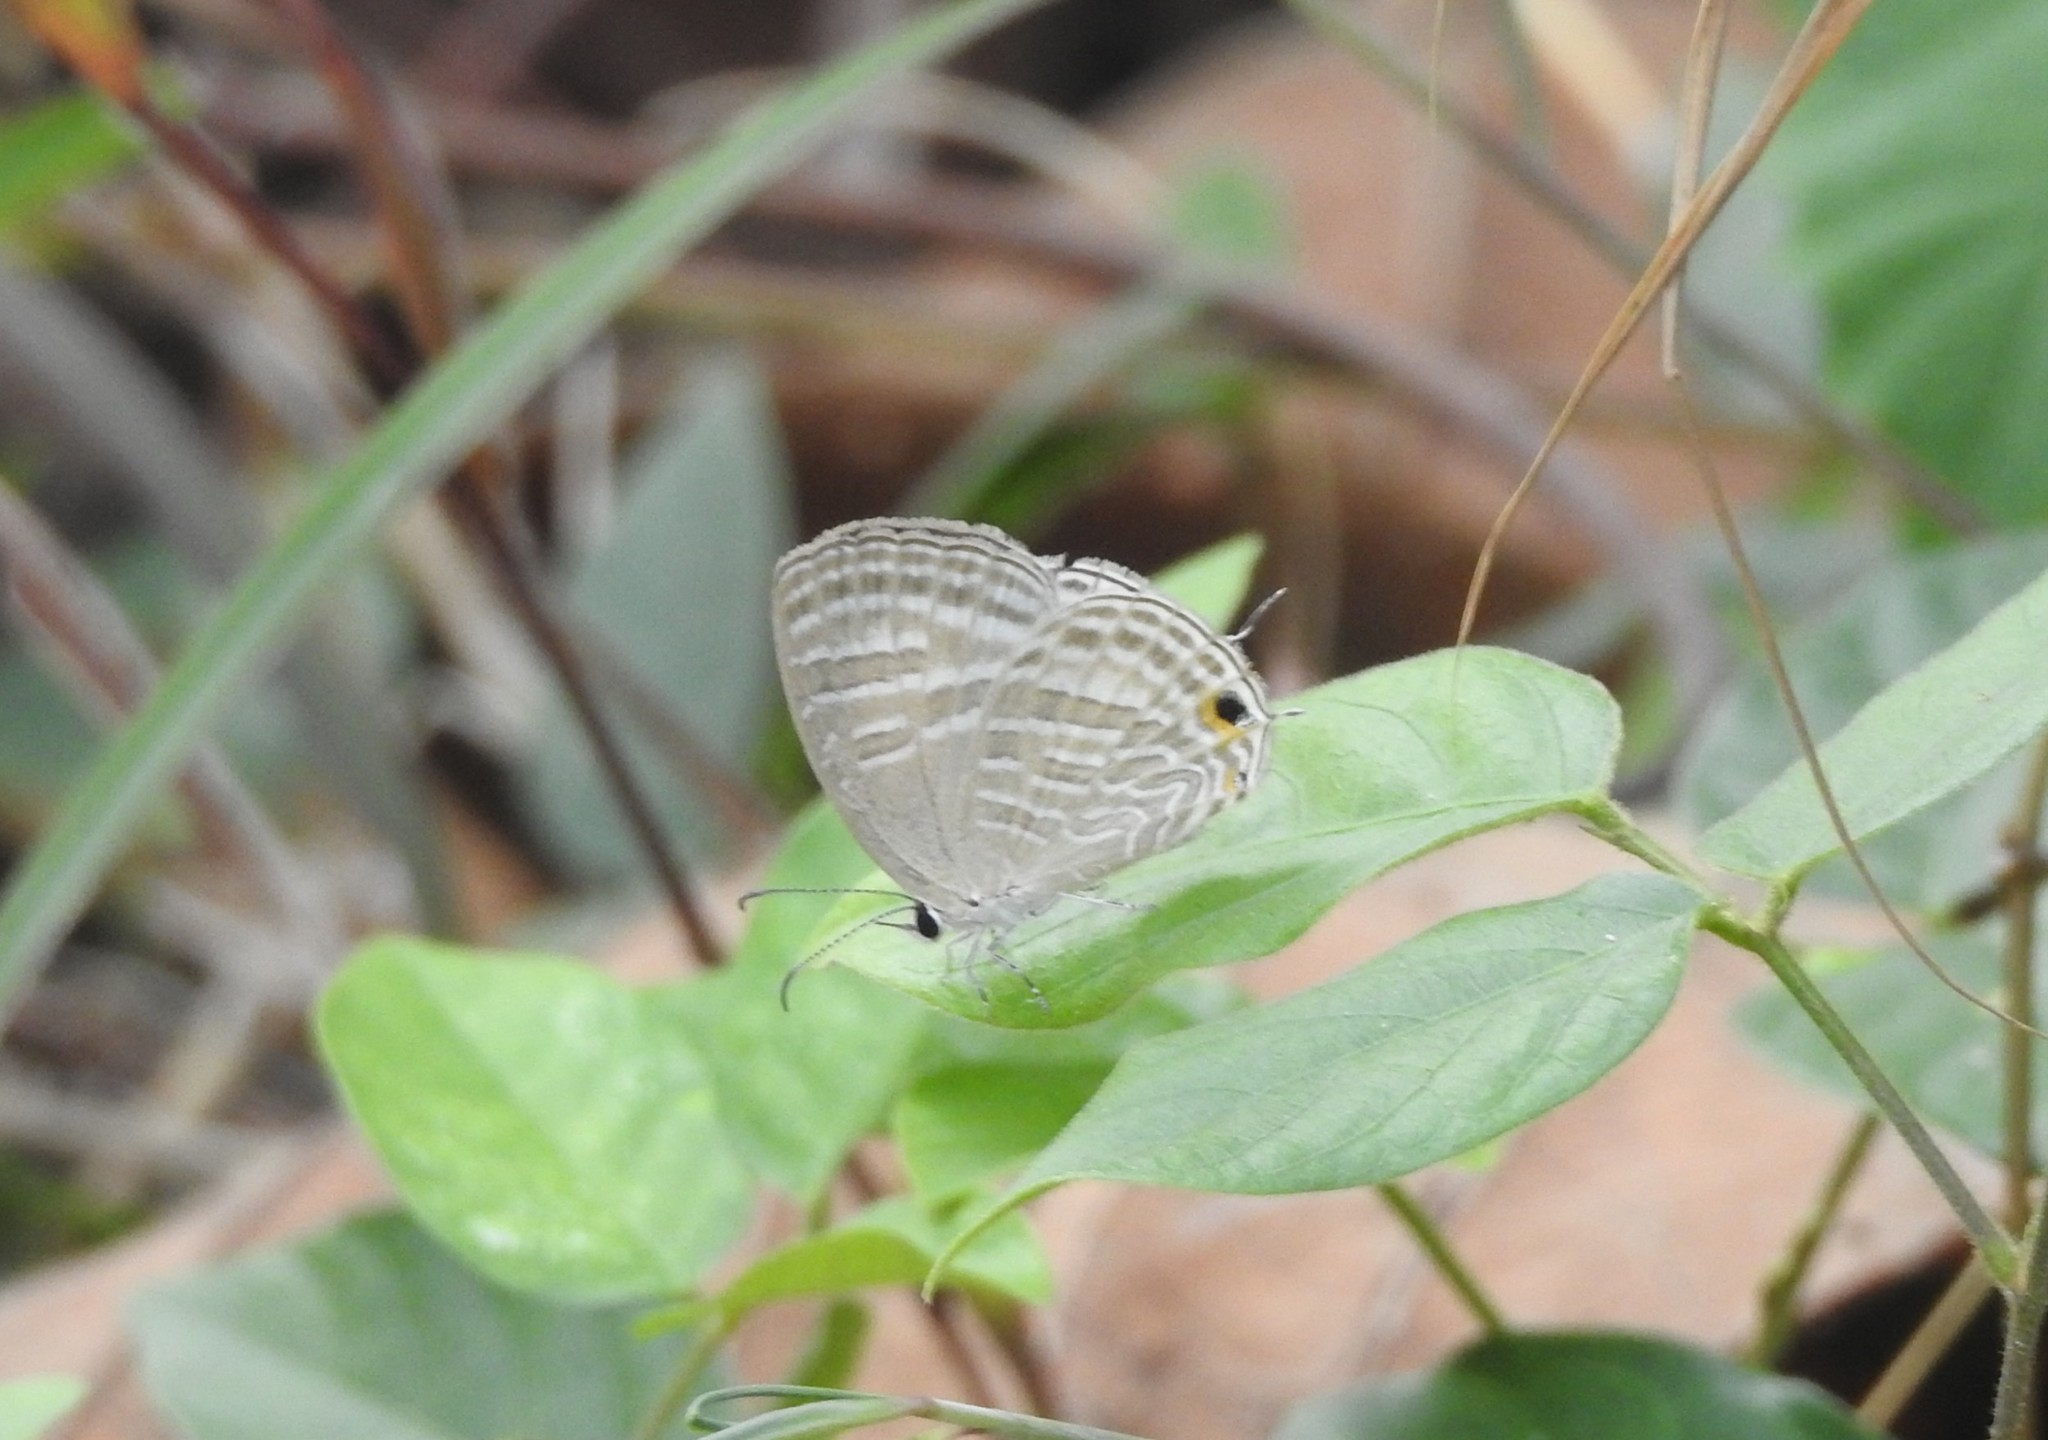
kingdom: Animalia
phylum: Arthropoda
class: Insecta
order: Lepidoptera
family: Lycaenidae
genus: Jamides
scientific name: Jamides celeno
